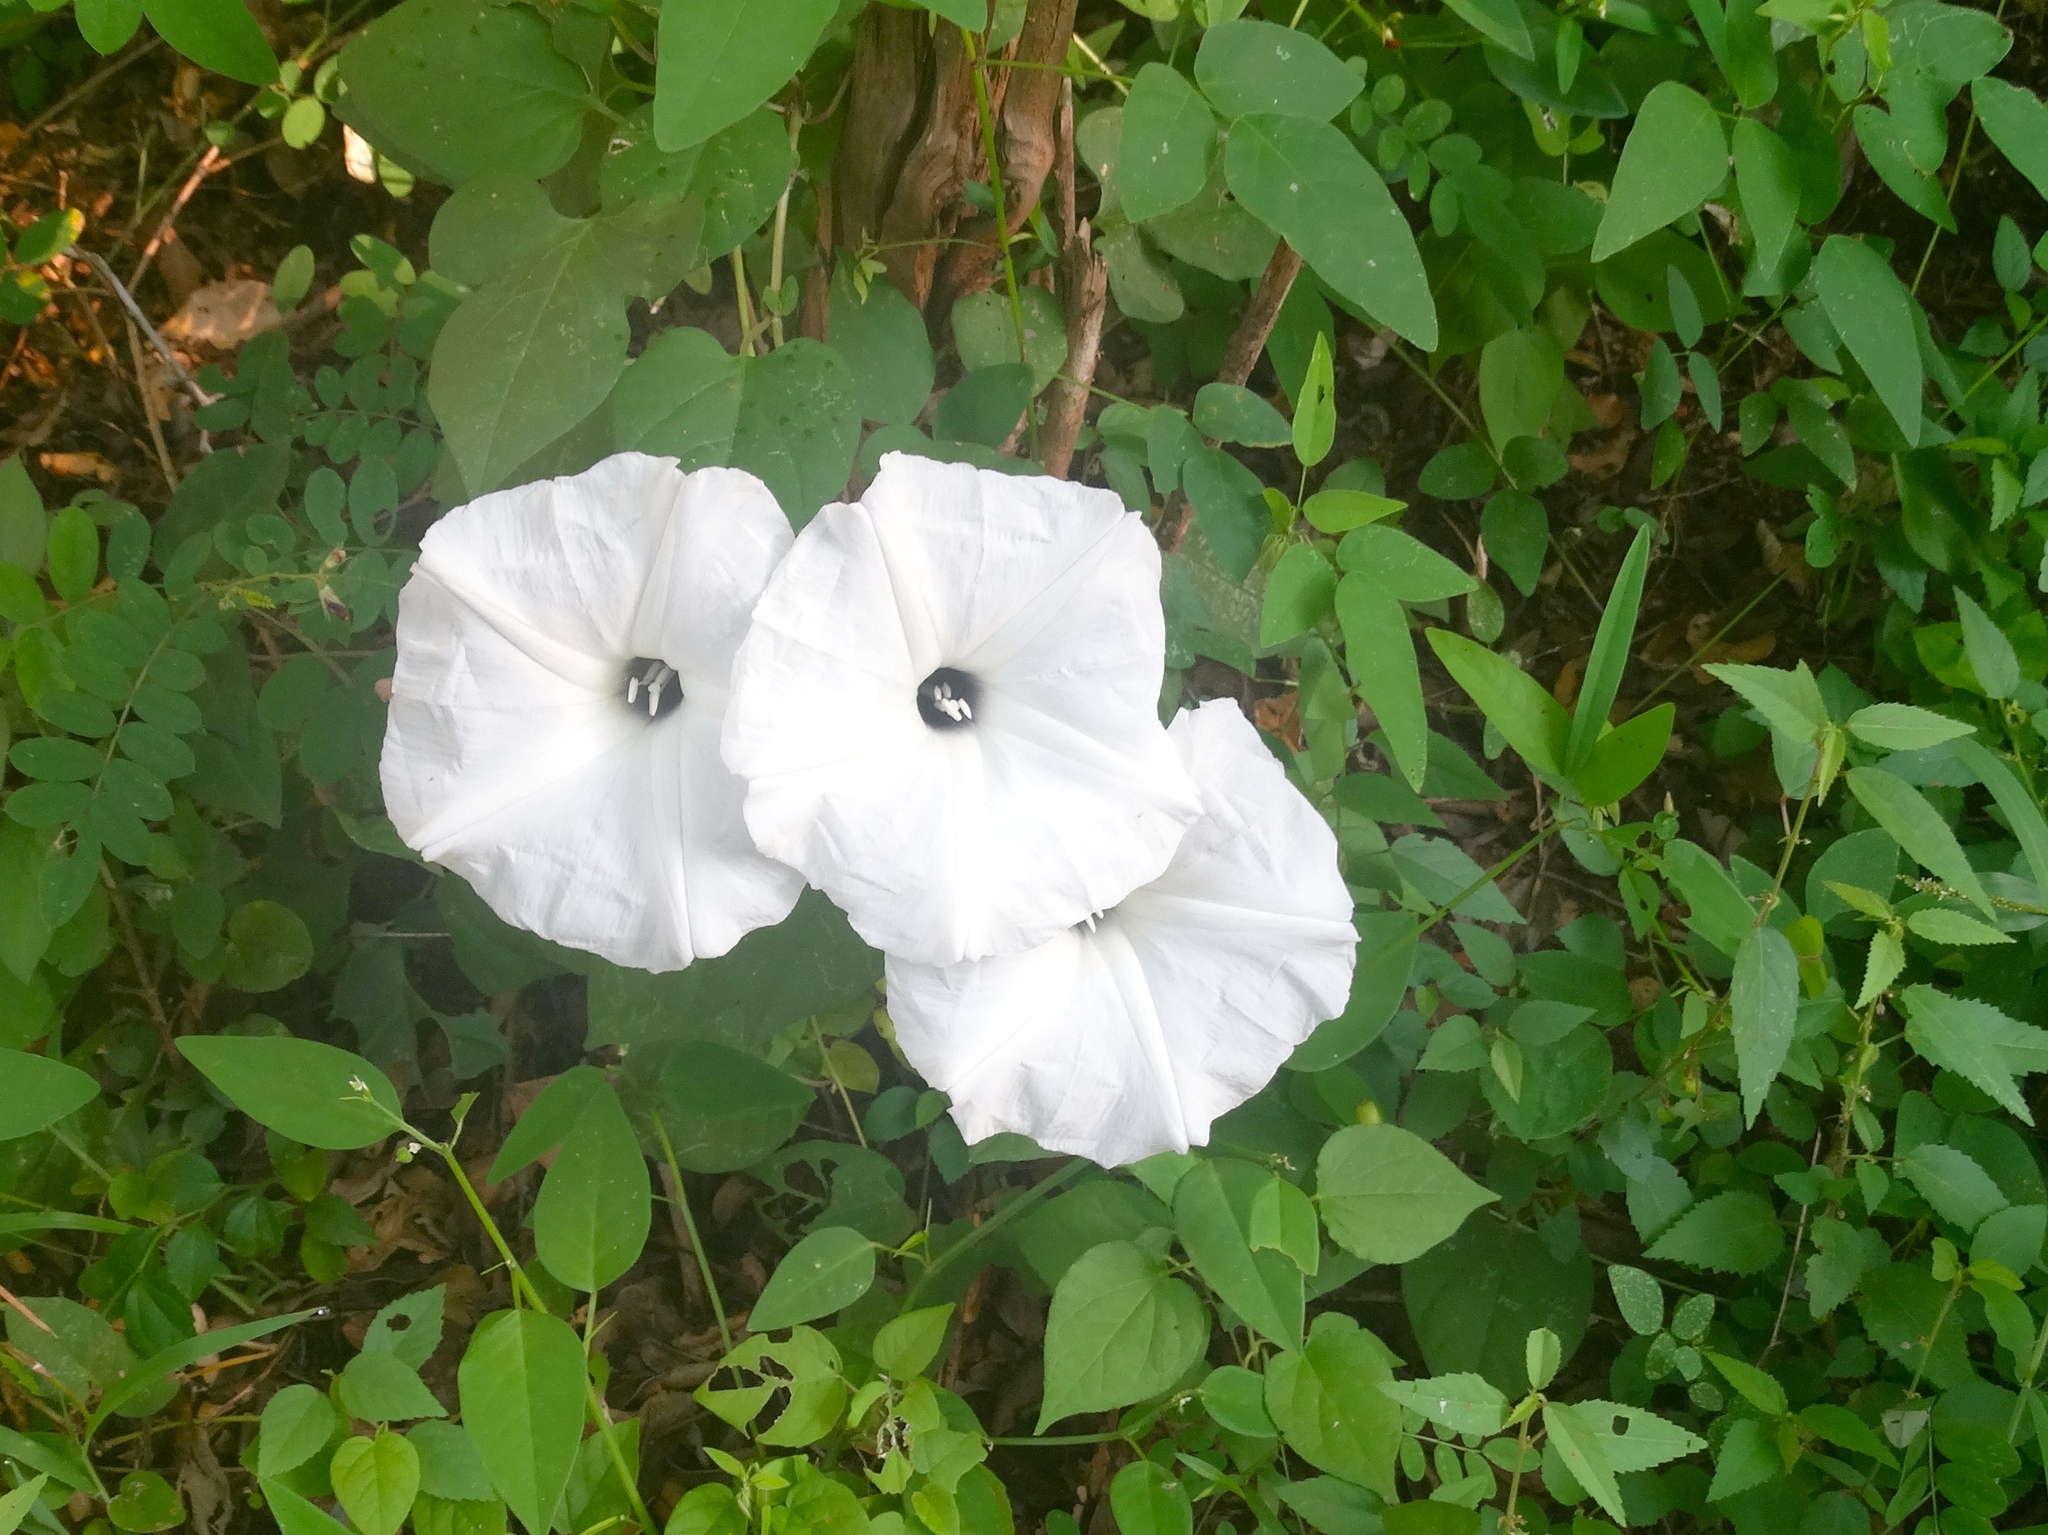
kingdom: Plantae
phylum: Tracheophyta
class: Magnoliopsida
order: Solanales
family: Convolvulaceae
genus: Ipomoea
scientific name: Ipomoea
